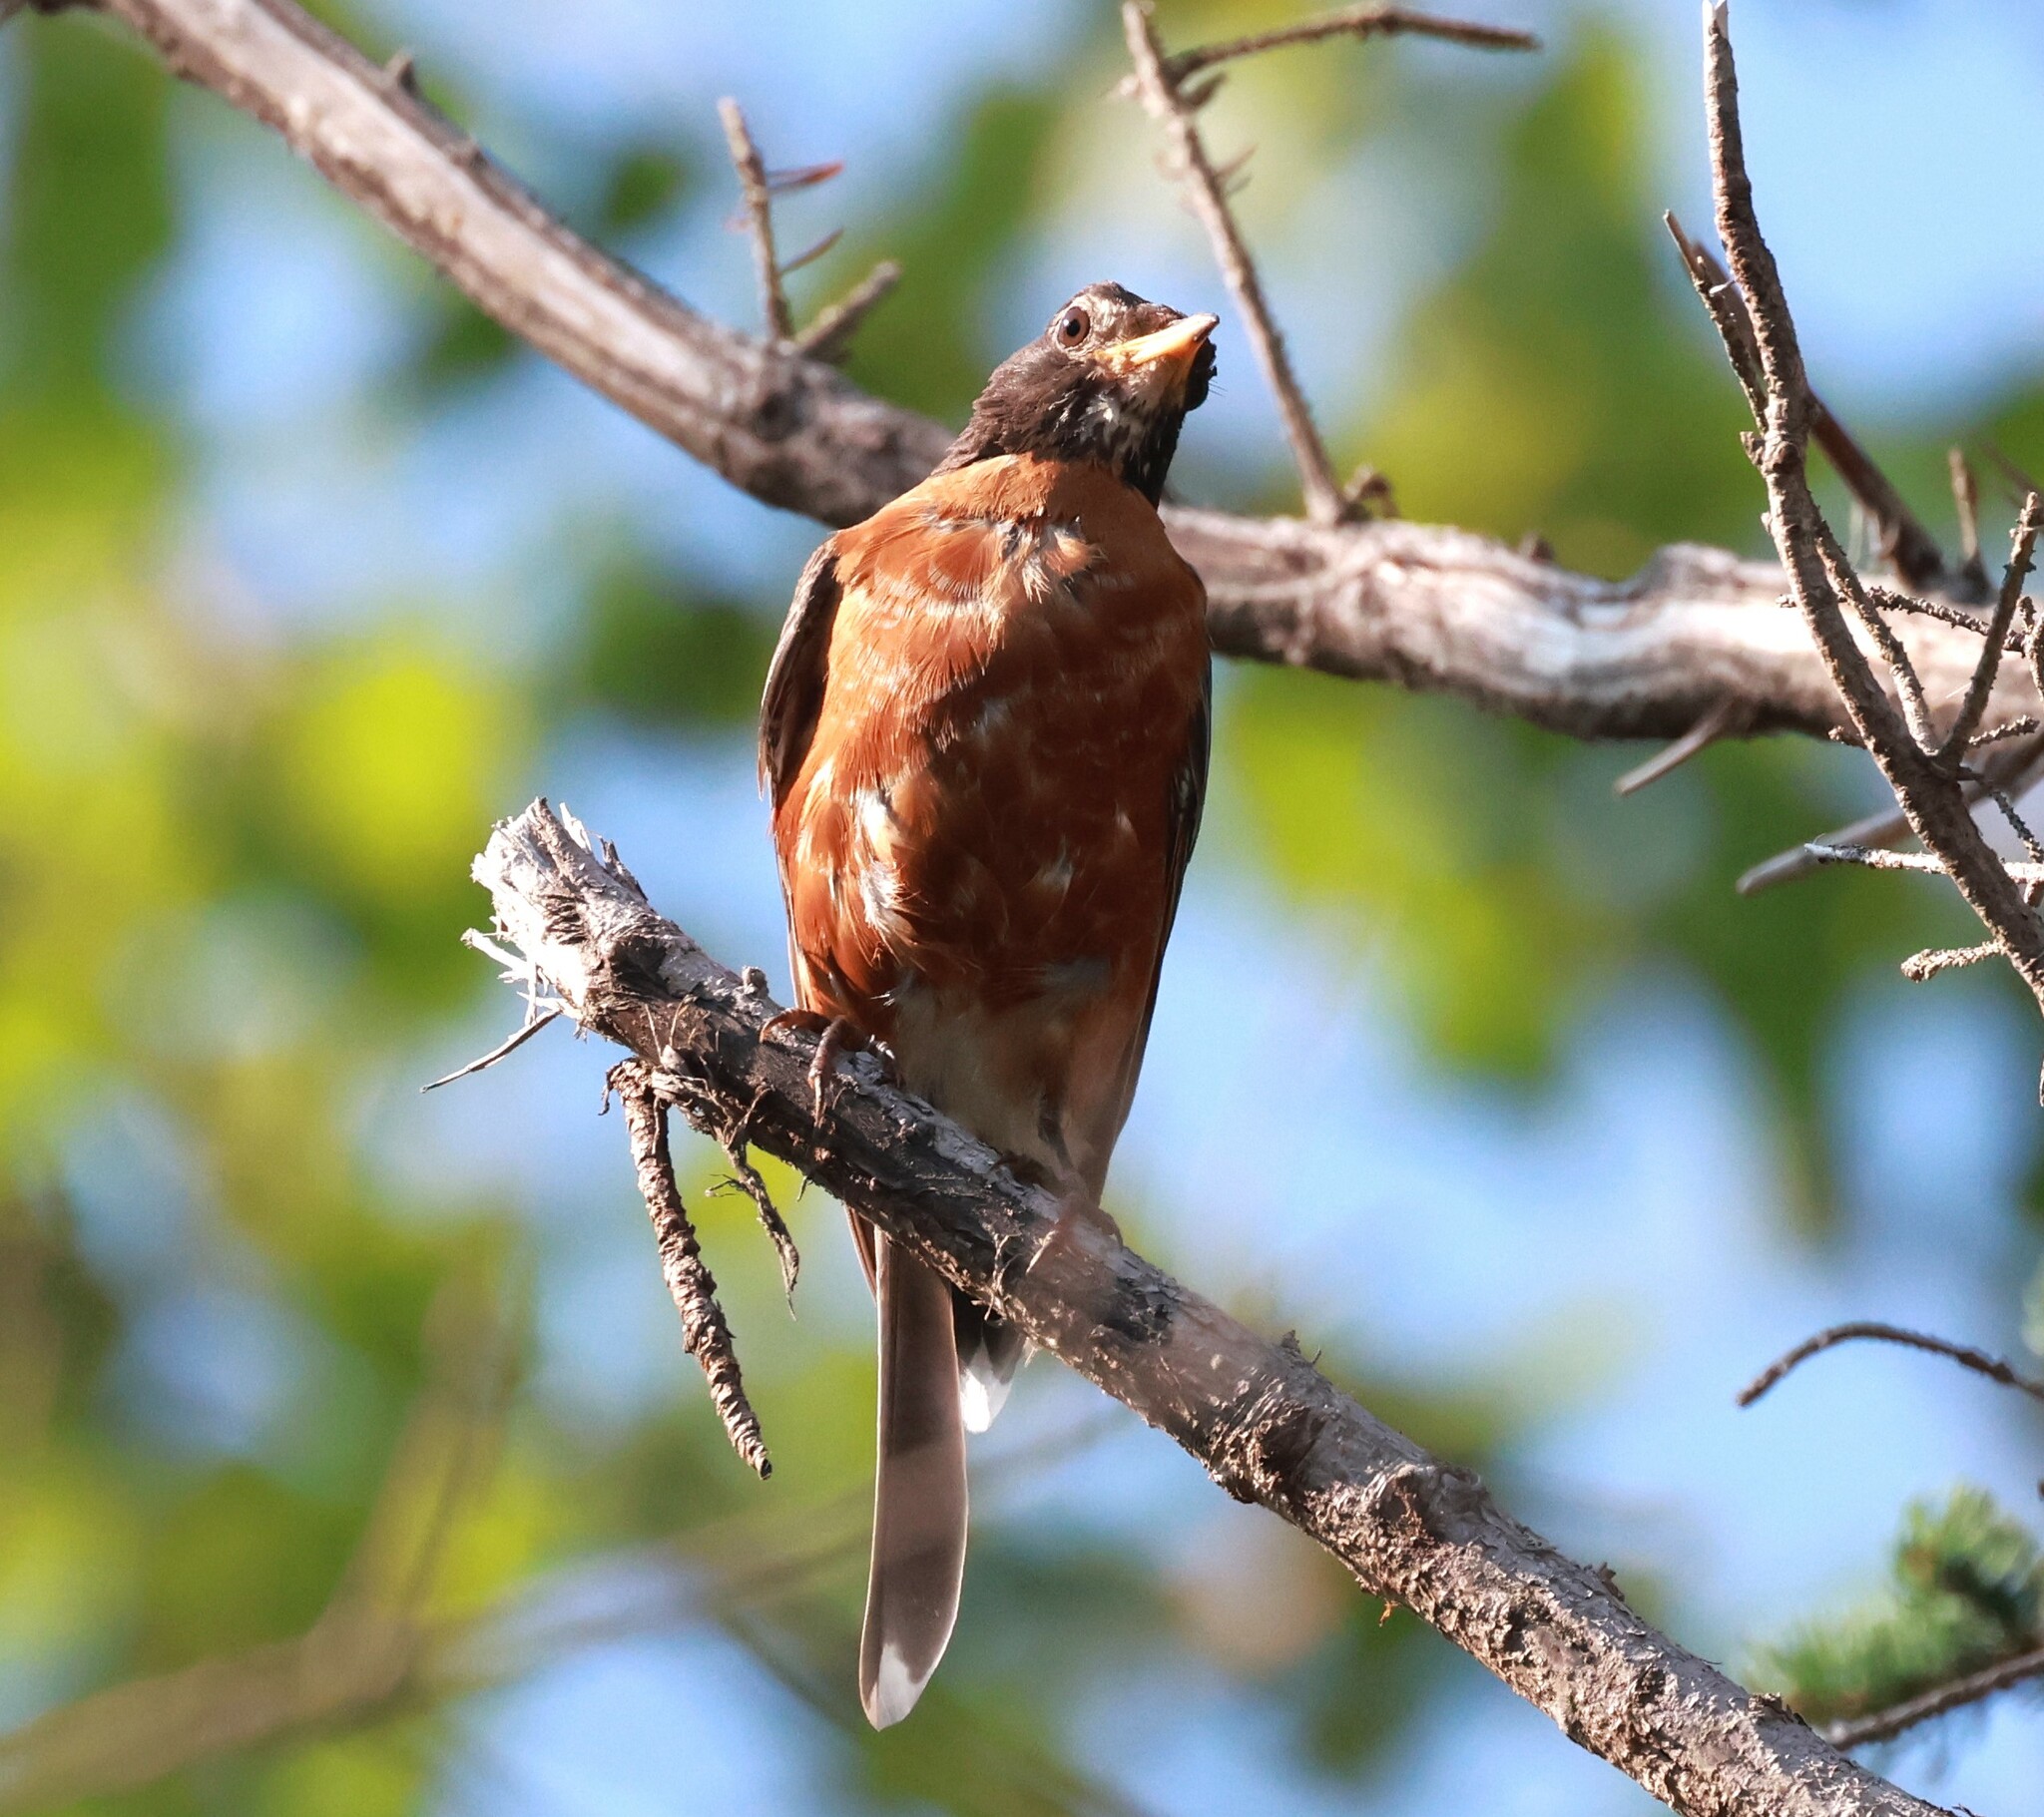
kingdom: Animalia
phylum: Chordata
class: Aves
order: Passeriformes
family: Turdidae
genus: Turdus
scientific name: Turdus migratorius
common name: American robin
